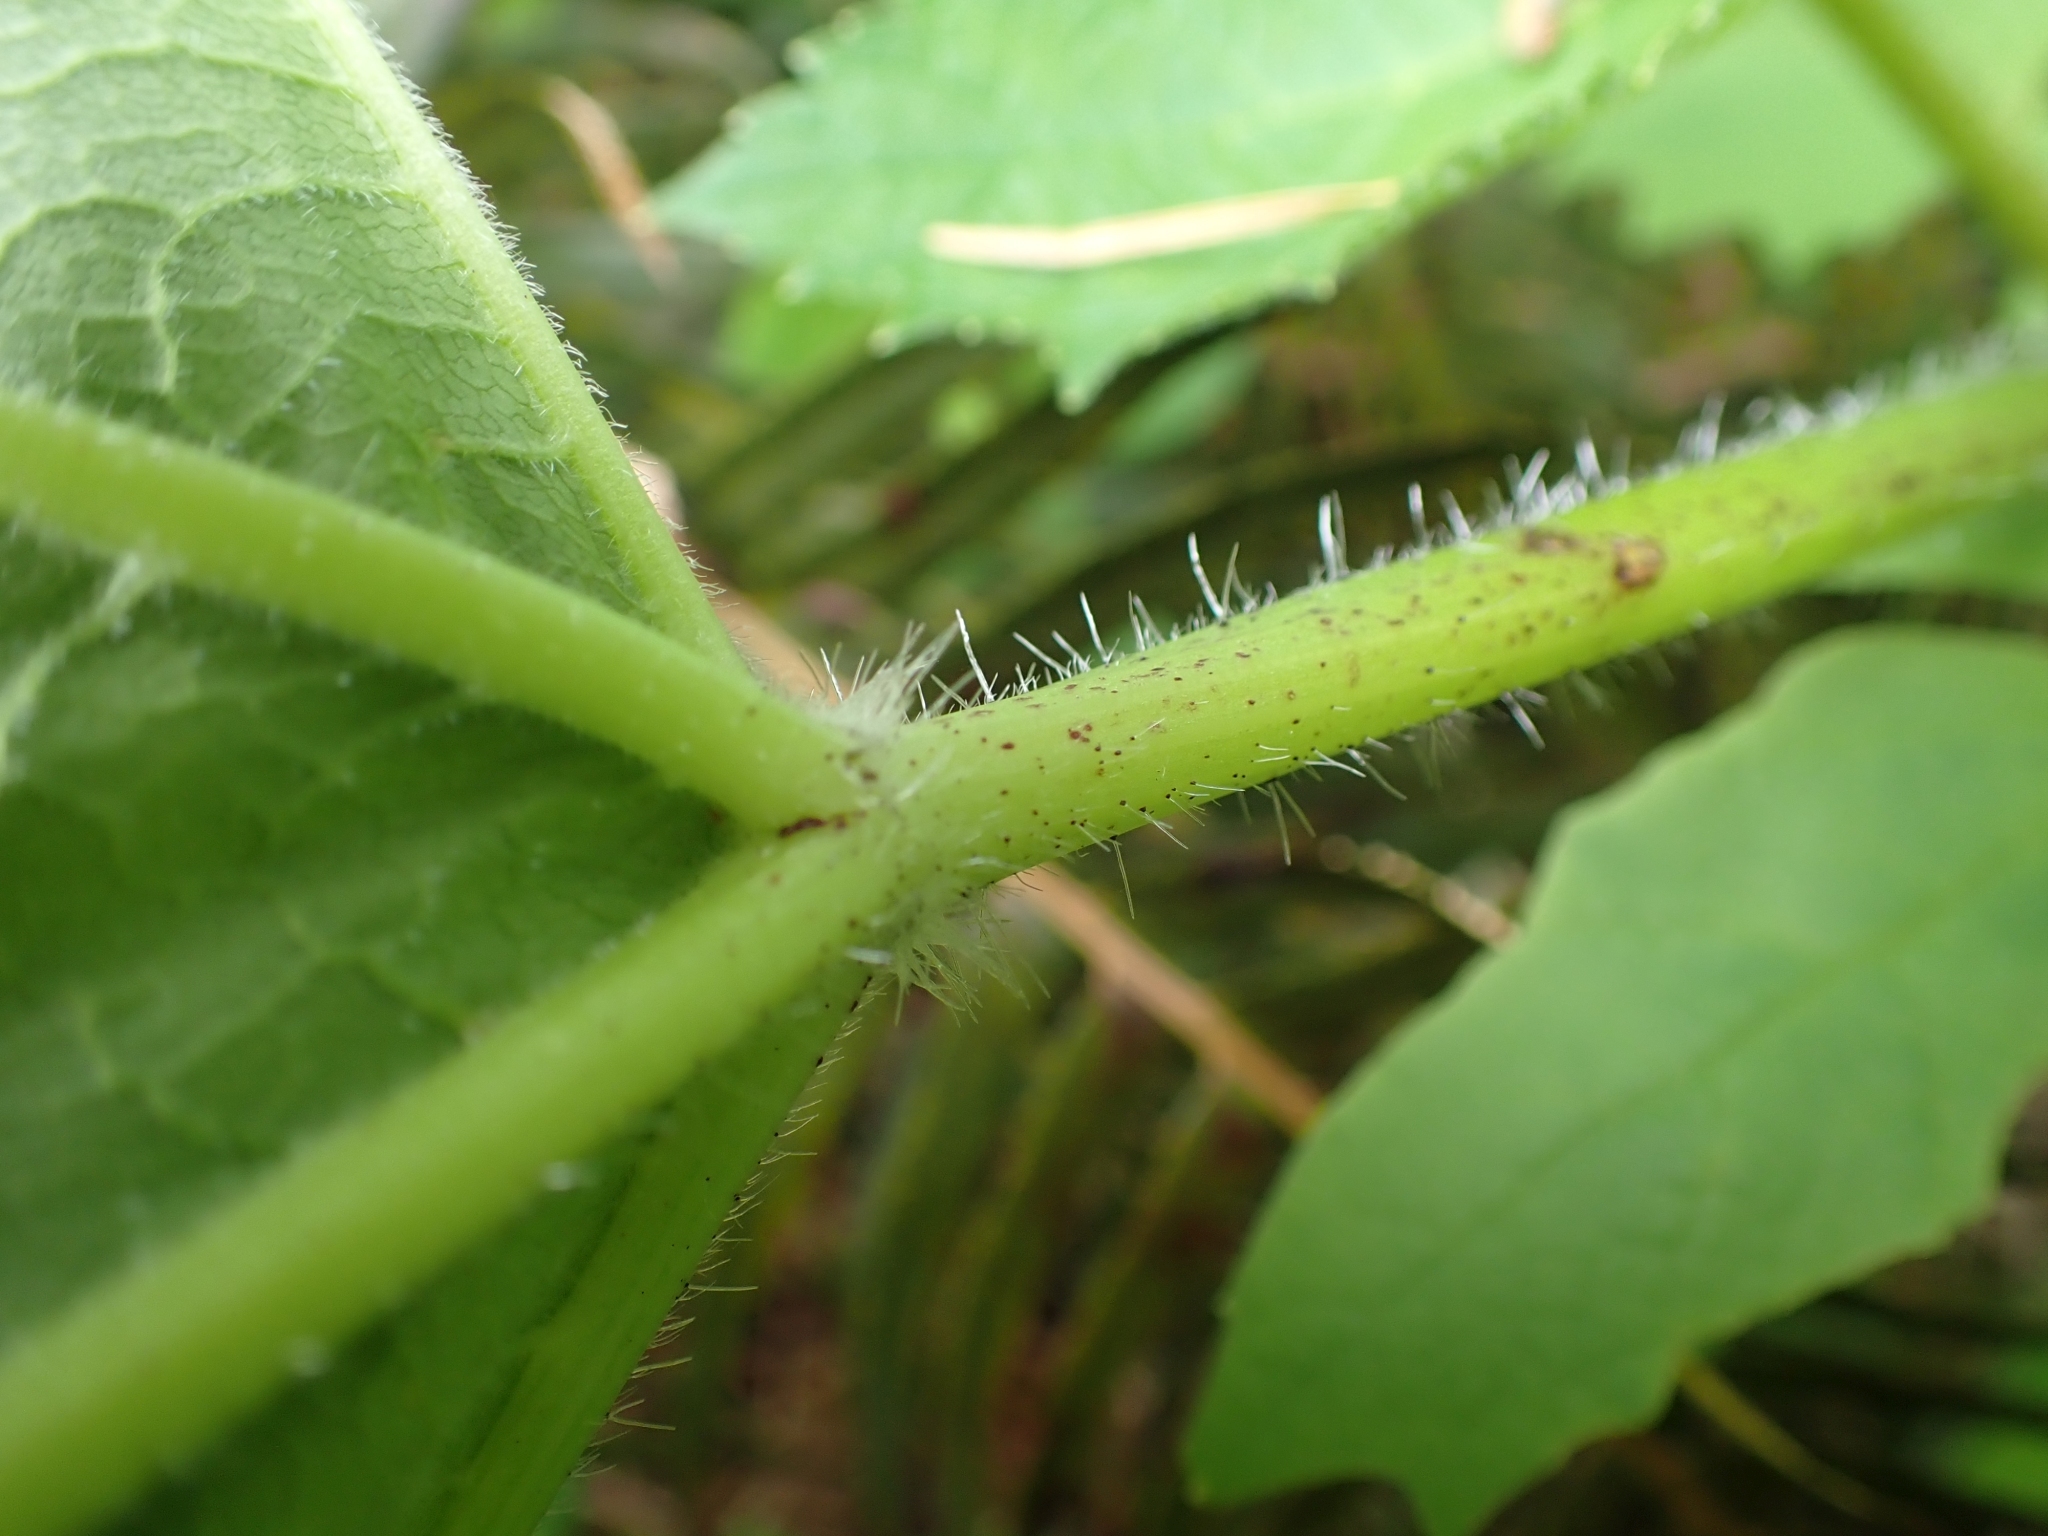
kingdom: Plantae
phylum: Tracheophyta
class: Magnoliopsida
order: Apiales
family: Apiaceae
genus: Heracleum
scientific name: Heracleum maximum
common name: American cow parsnip
